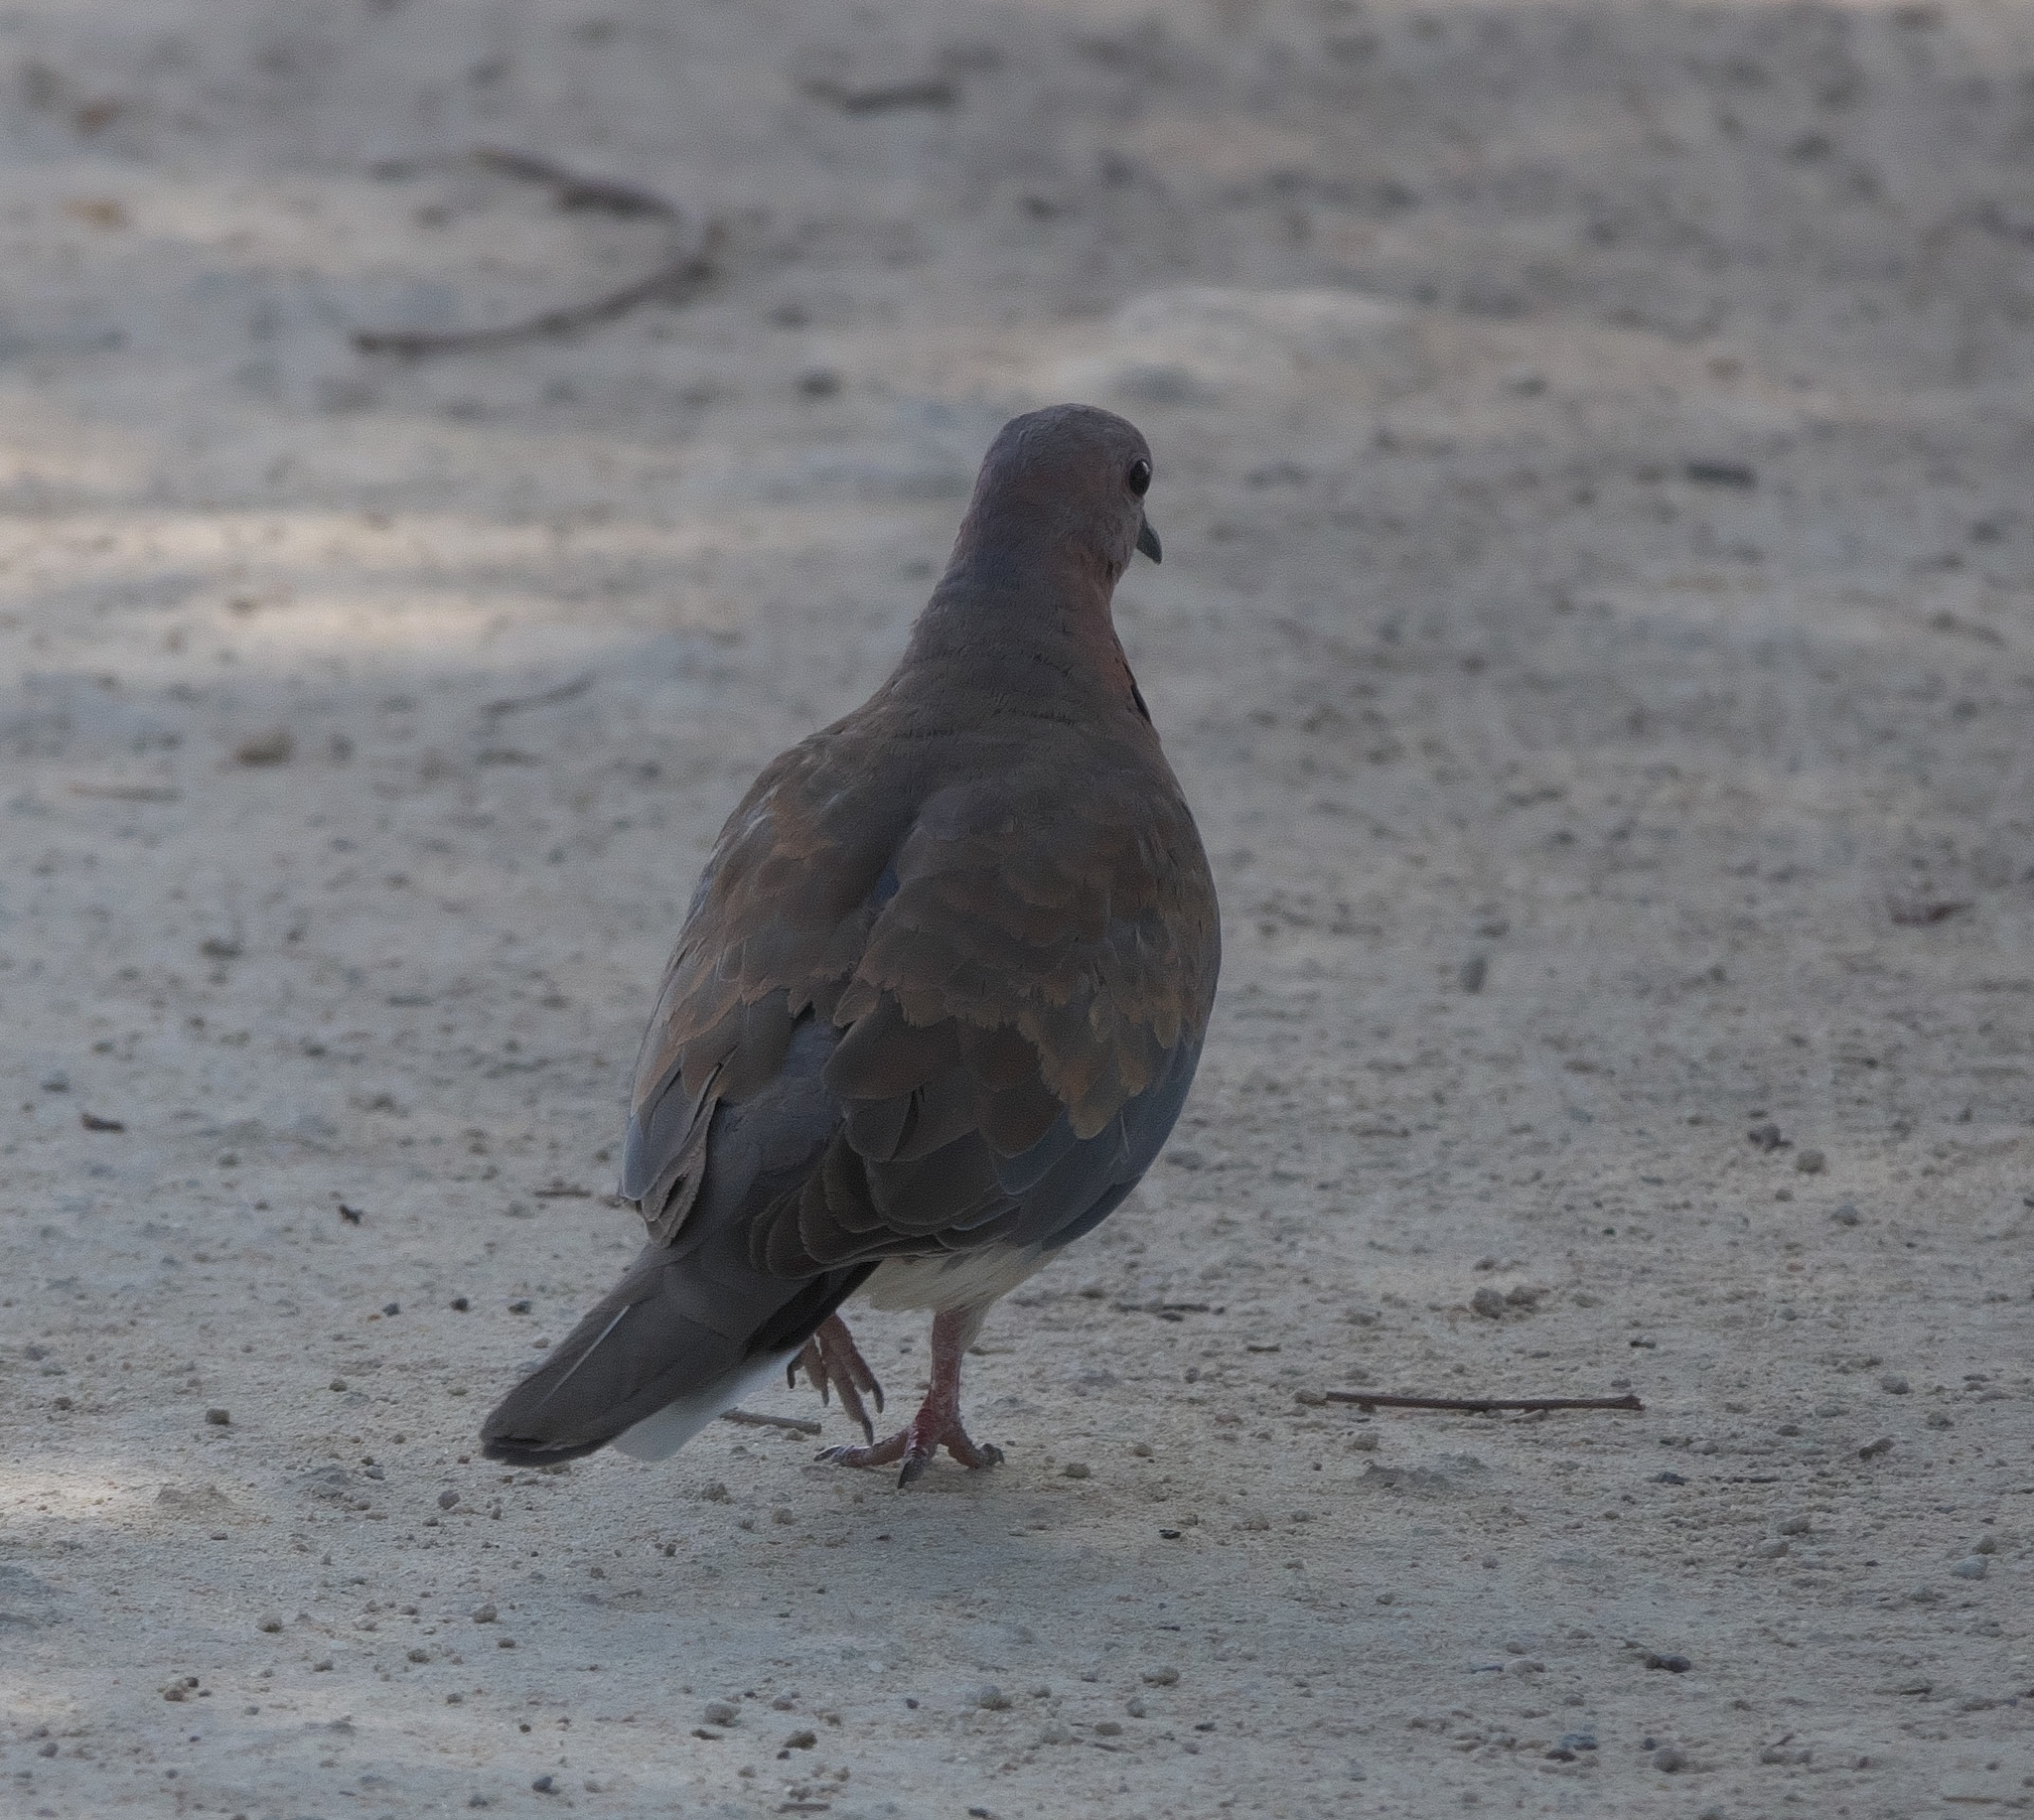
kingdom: Animalia
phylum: Chordata
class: Aves
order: Columbiformes
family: Columbidae
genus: Spilopelia
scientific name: Spilopelia senegalensis
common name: Laughing dove
